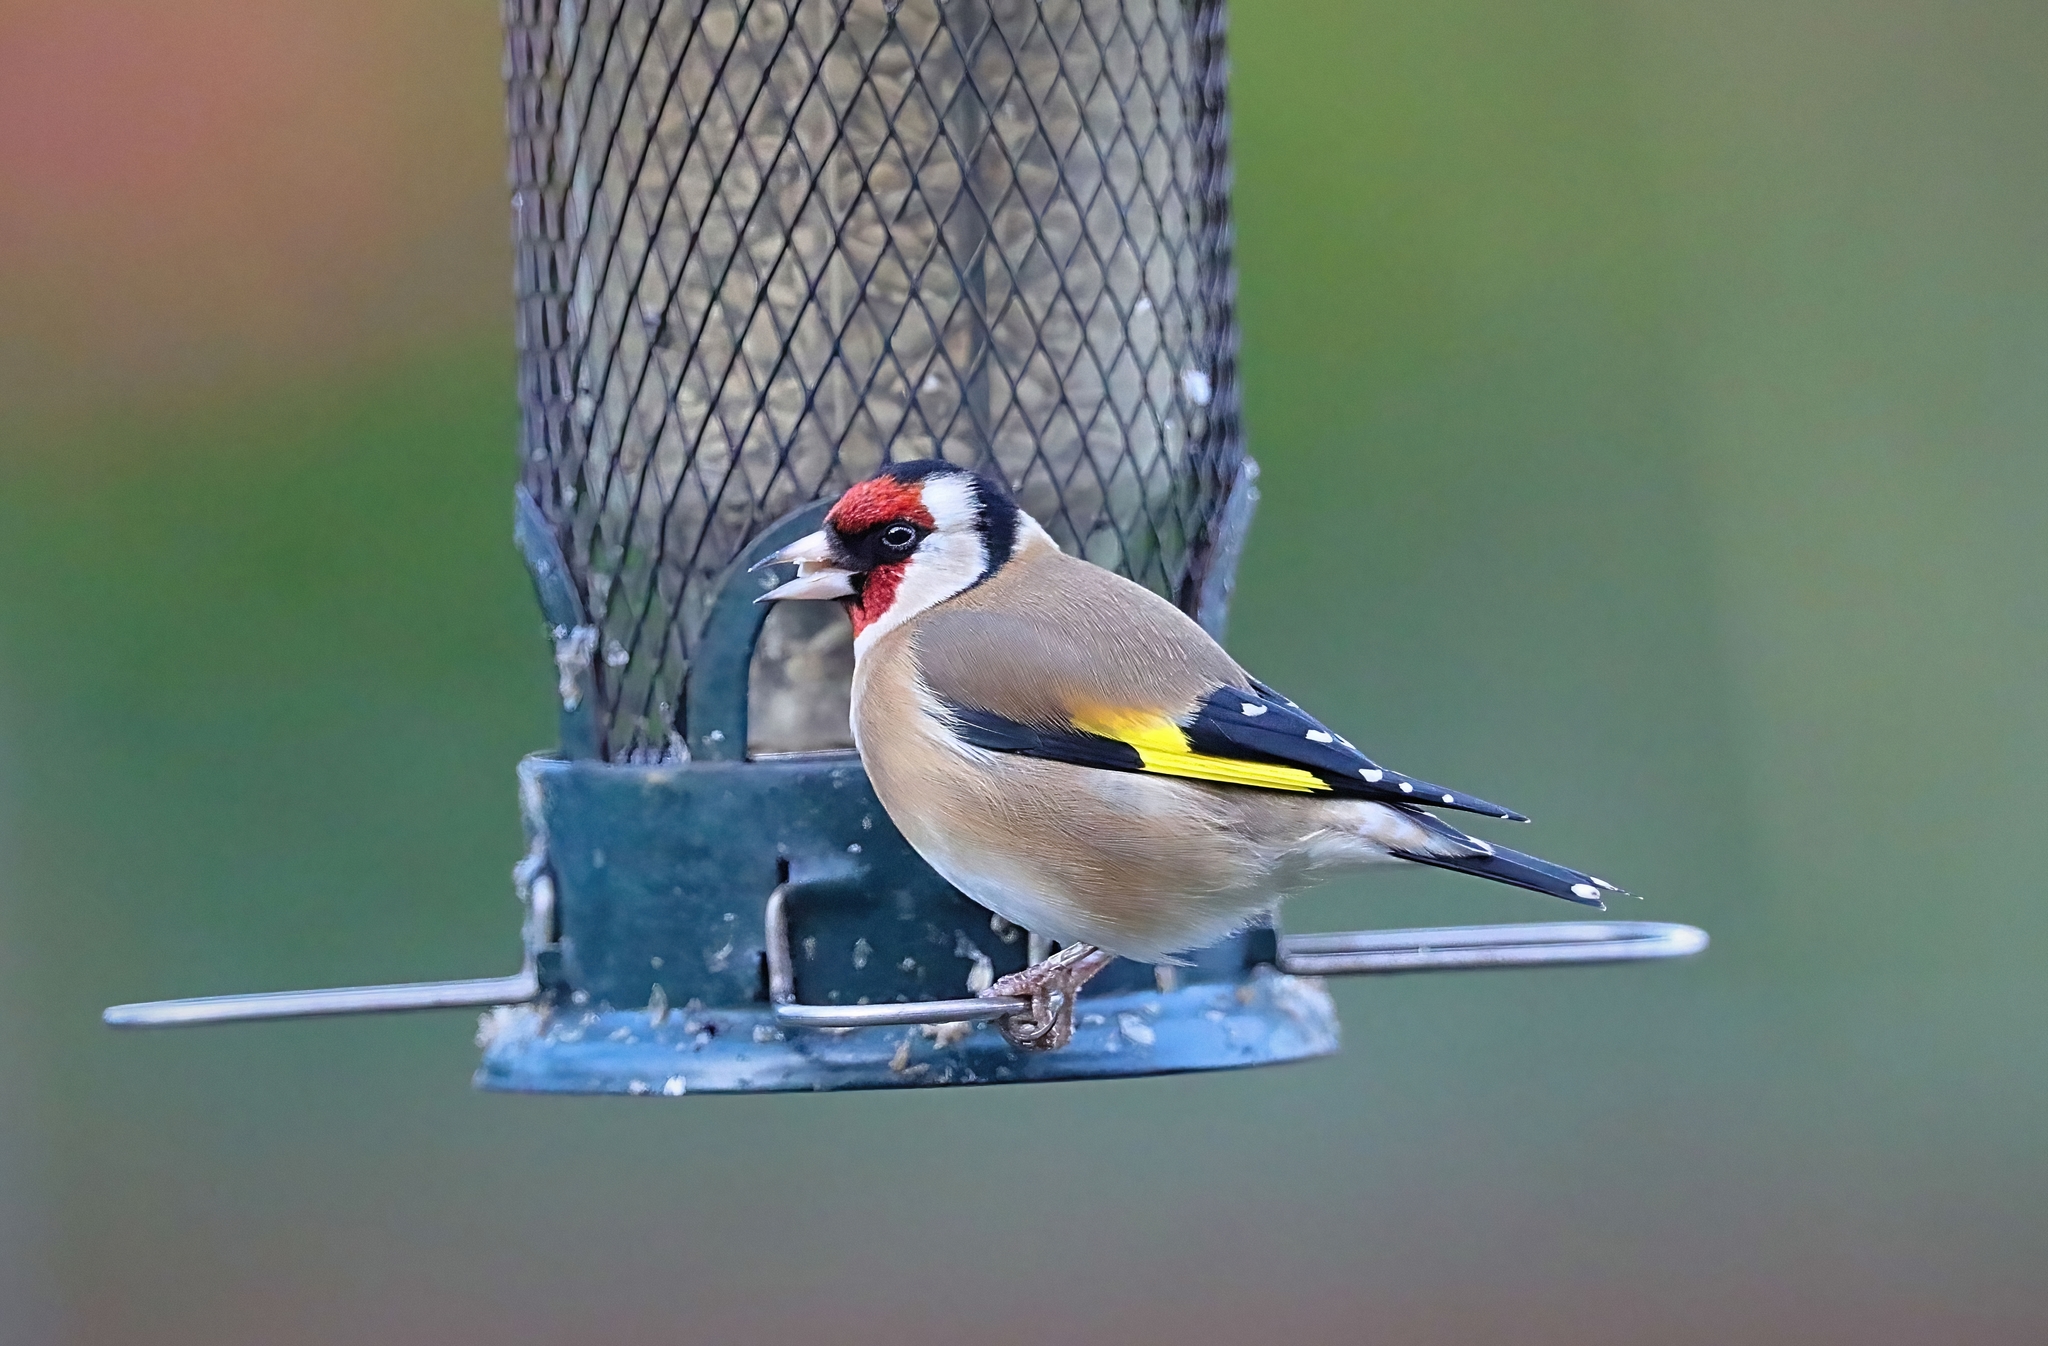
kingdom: Animalia
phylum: Chordata
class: Aves
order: Passeriformes
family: Fringillidae
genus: Carduelis
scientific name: Carduelis carduelis
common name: European goldfinch
